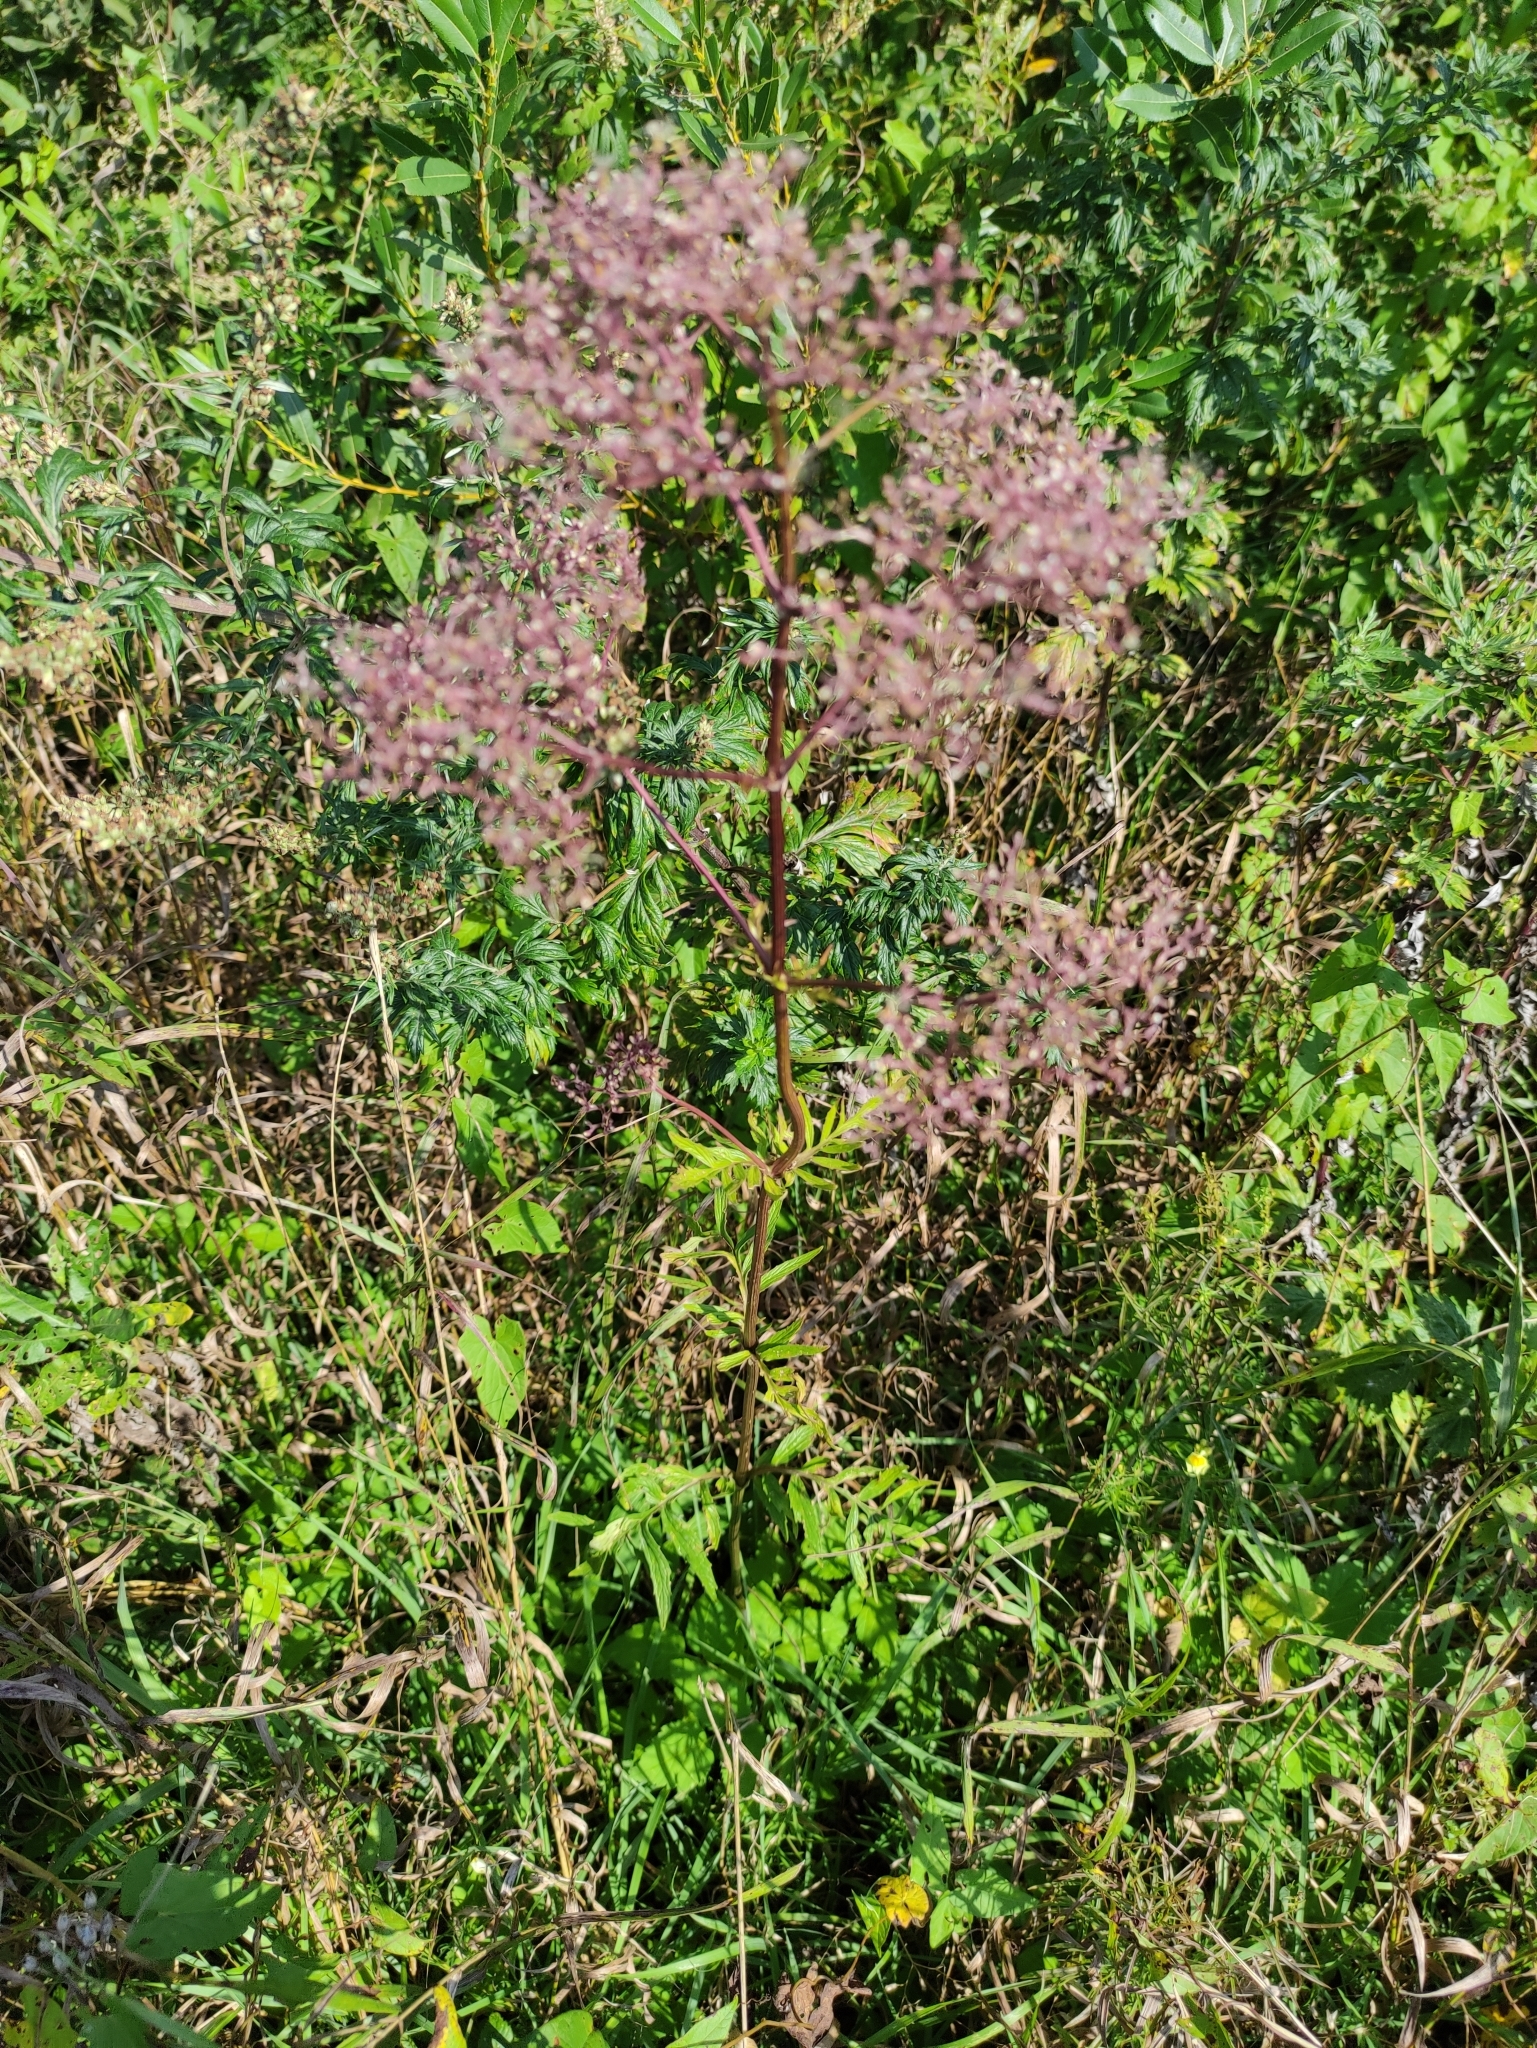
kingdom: Plantae
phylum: Tracheophyta
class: Magnoliopsida
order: Dipsacales
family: Caprifoliaceae
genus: Valeriana
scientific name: Valeriana officinalis
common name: Common valerian
